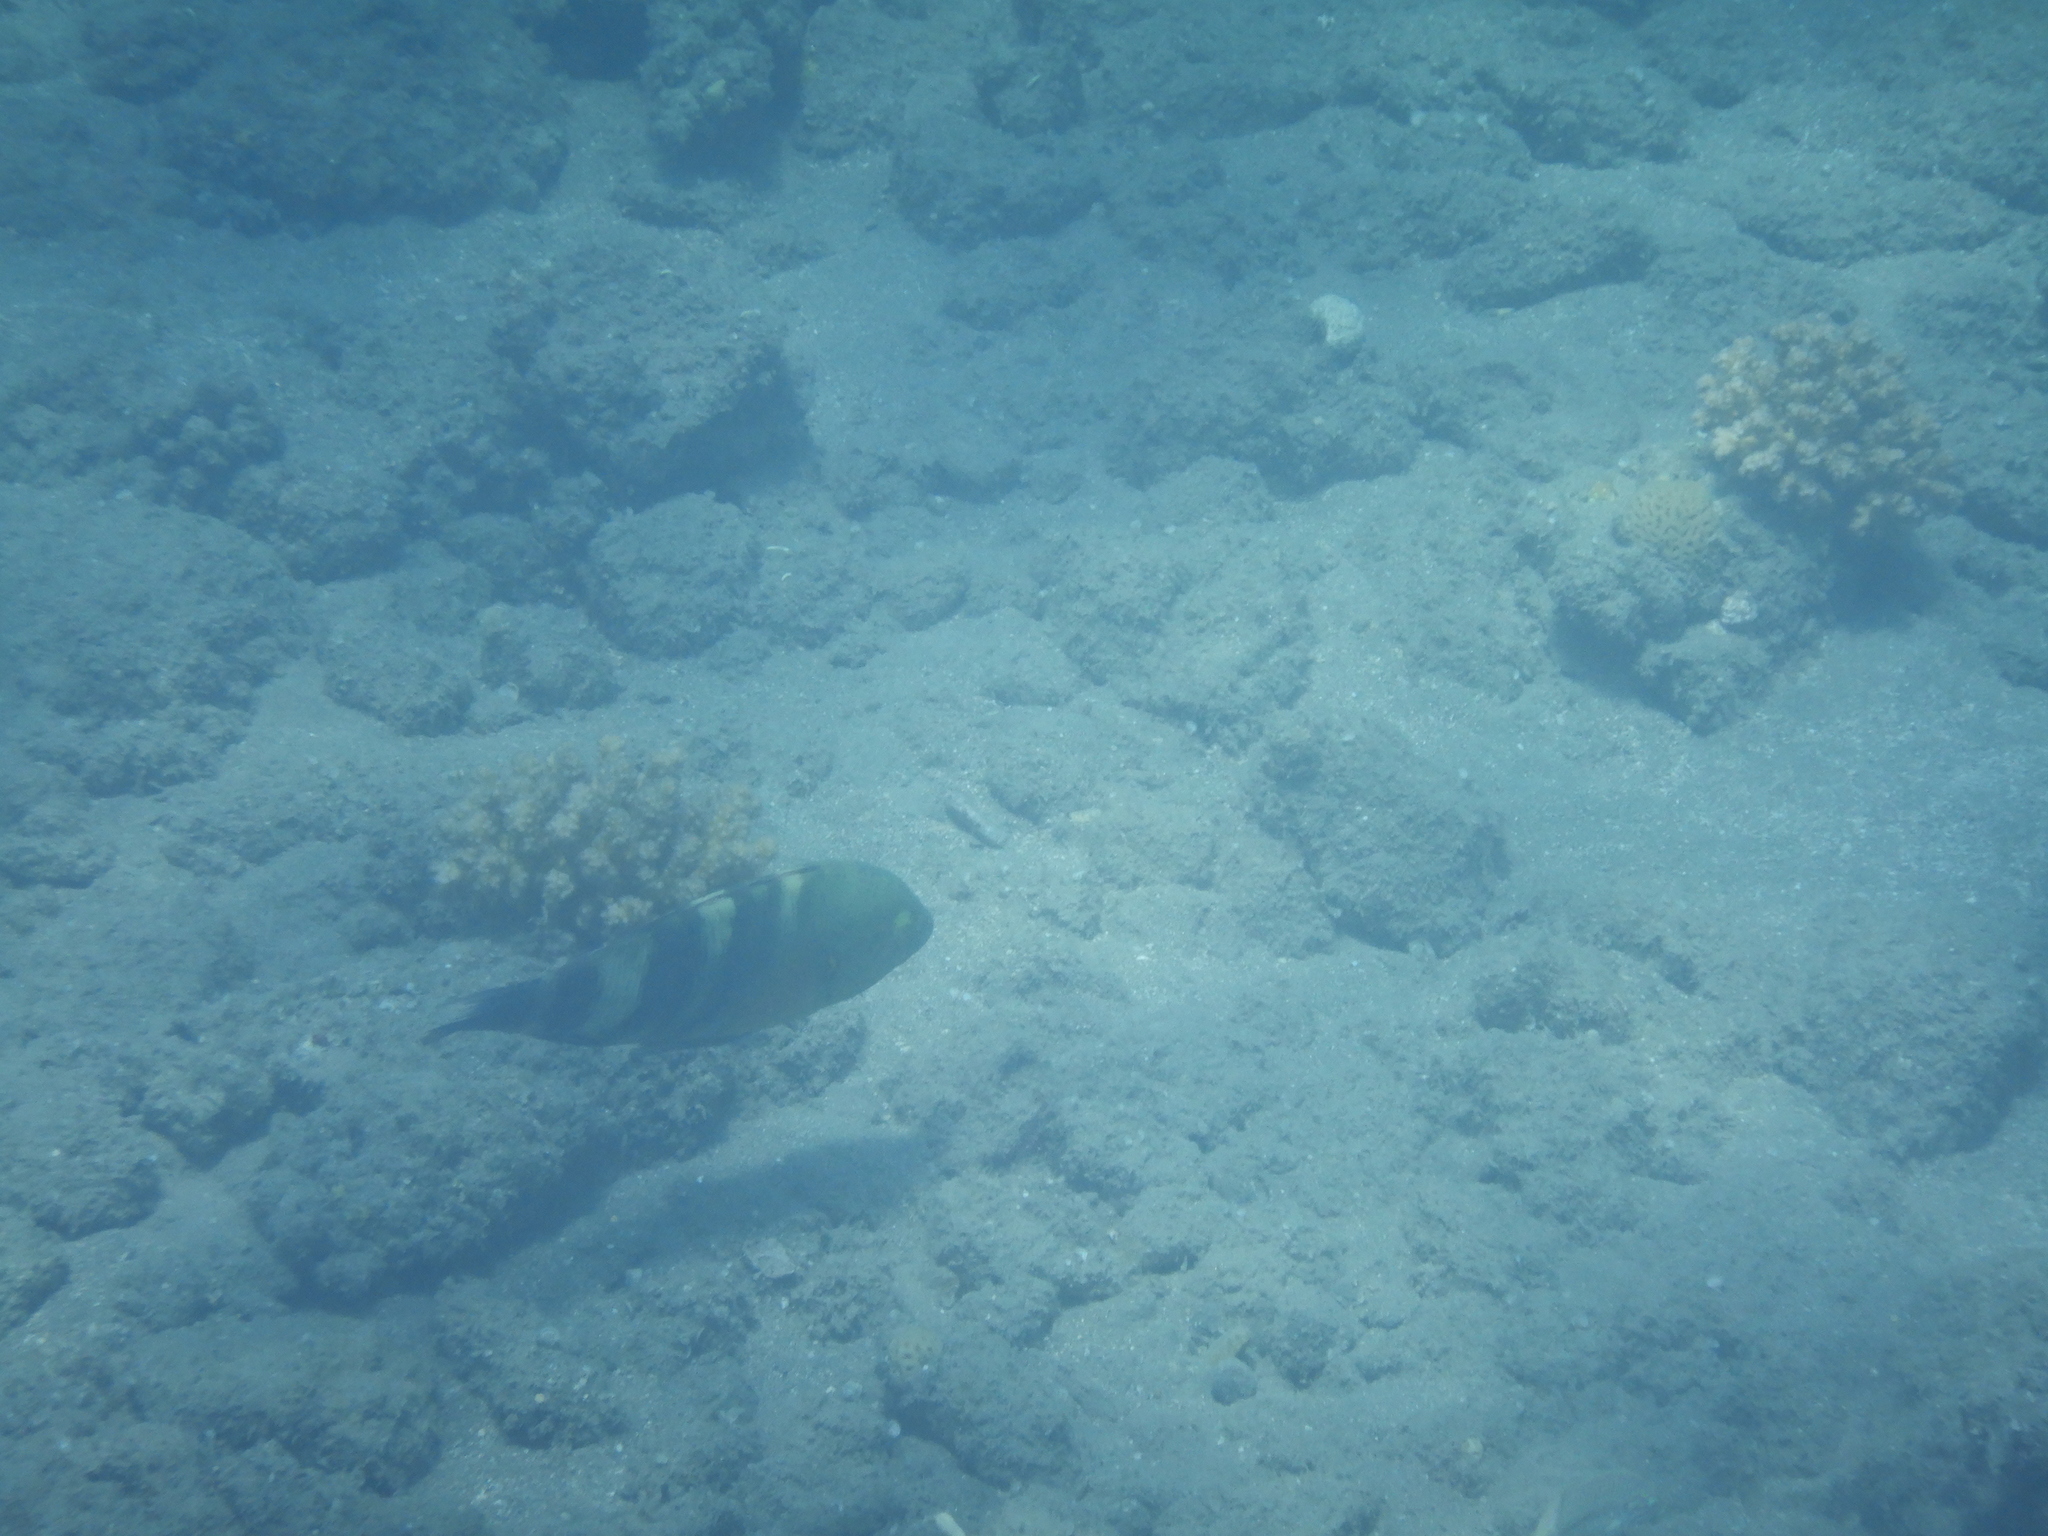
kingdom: Animalia
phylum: Chordata
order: Perciformes
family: Labridae
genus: Cheilinus
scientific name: Cheilinus lunulatus
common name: Broomtail wrasse
